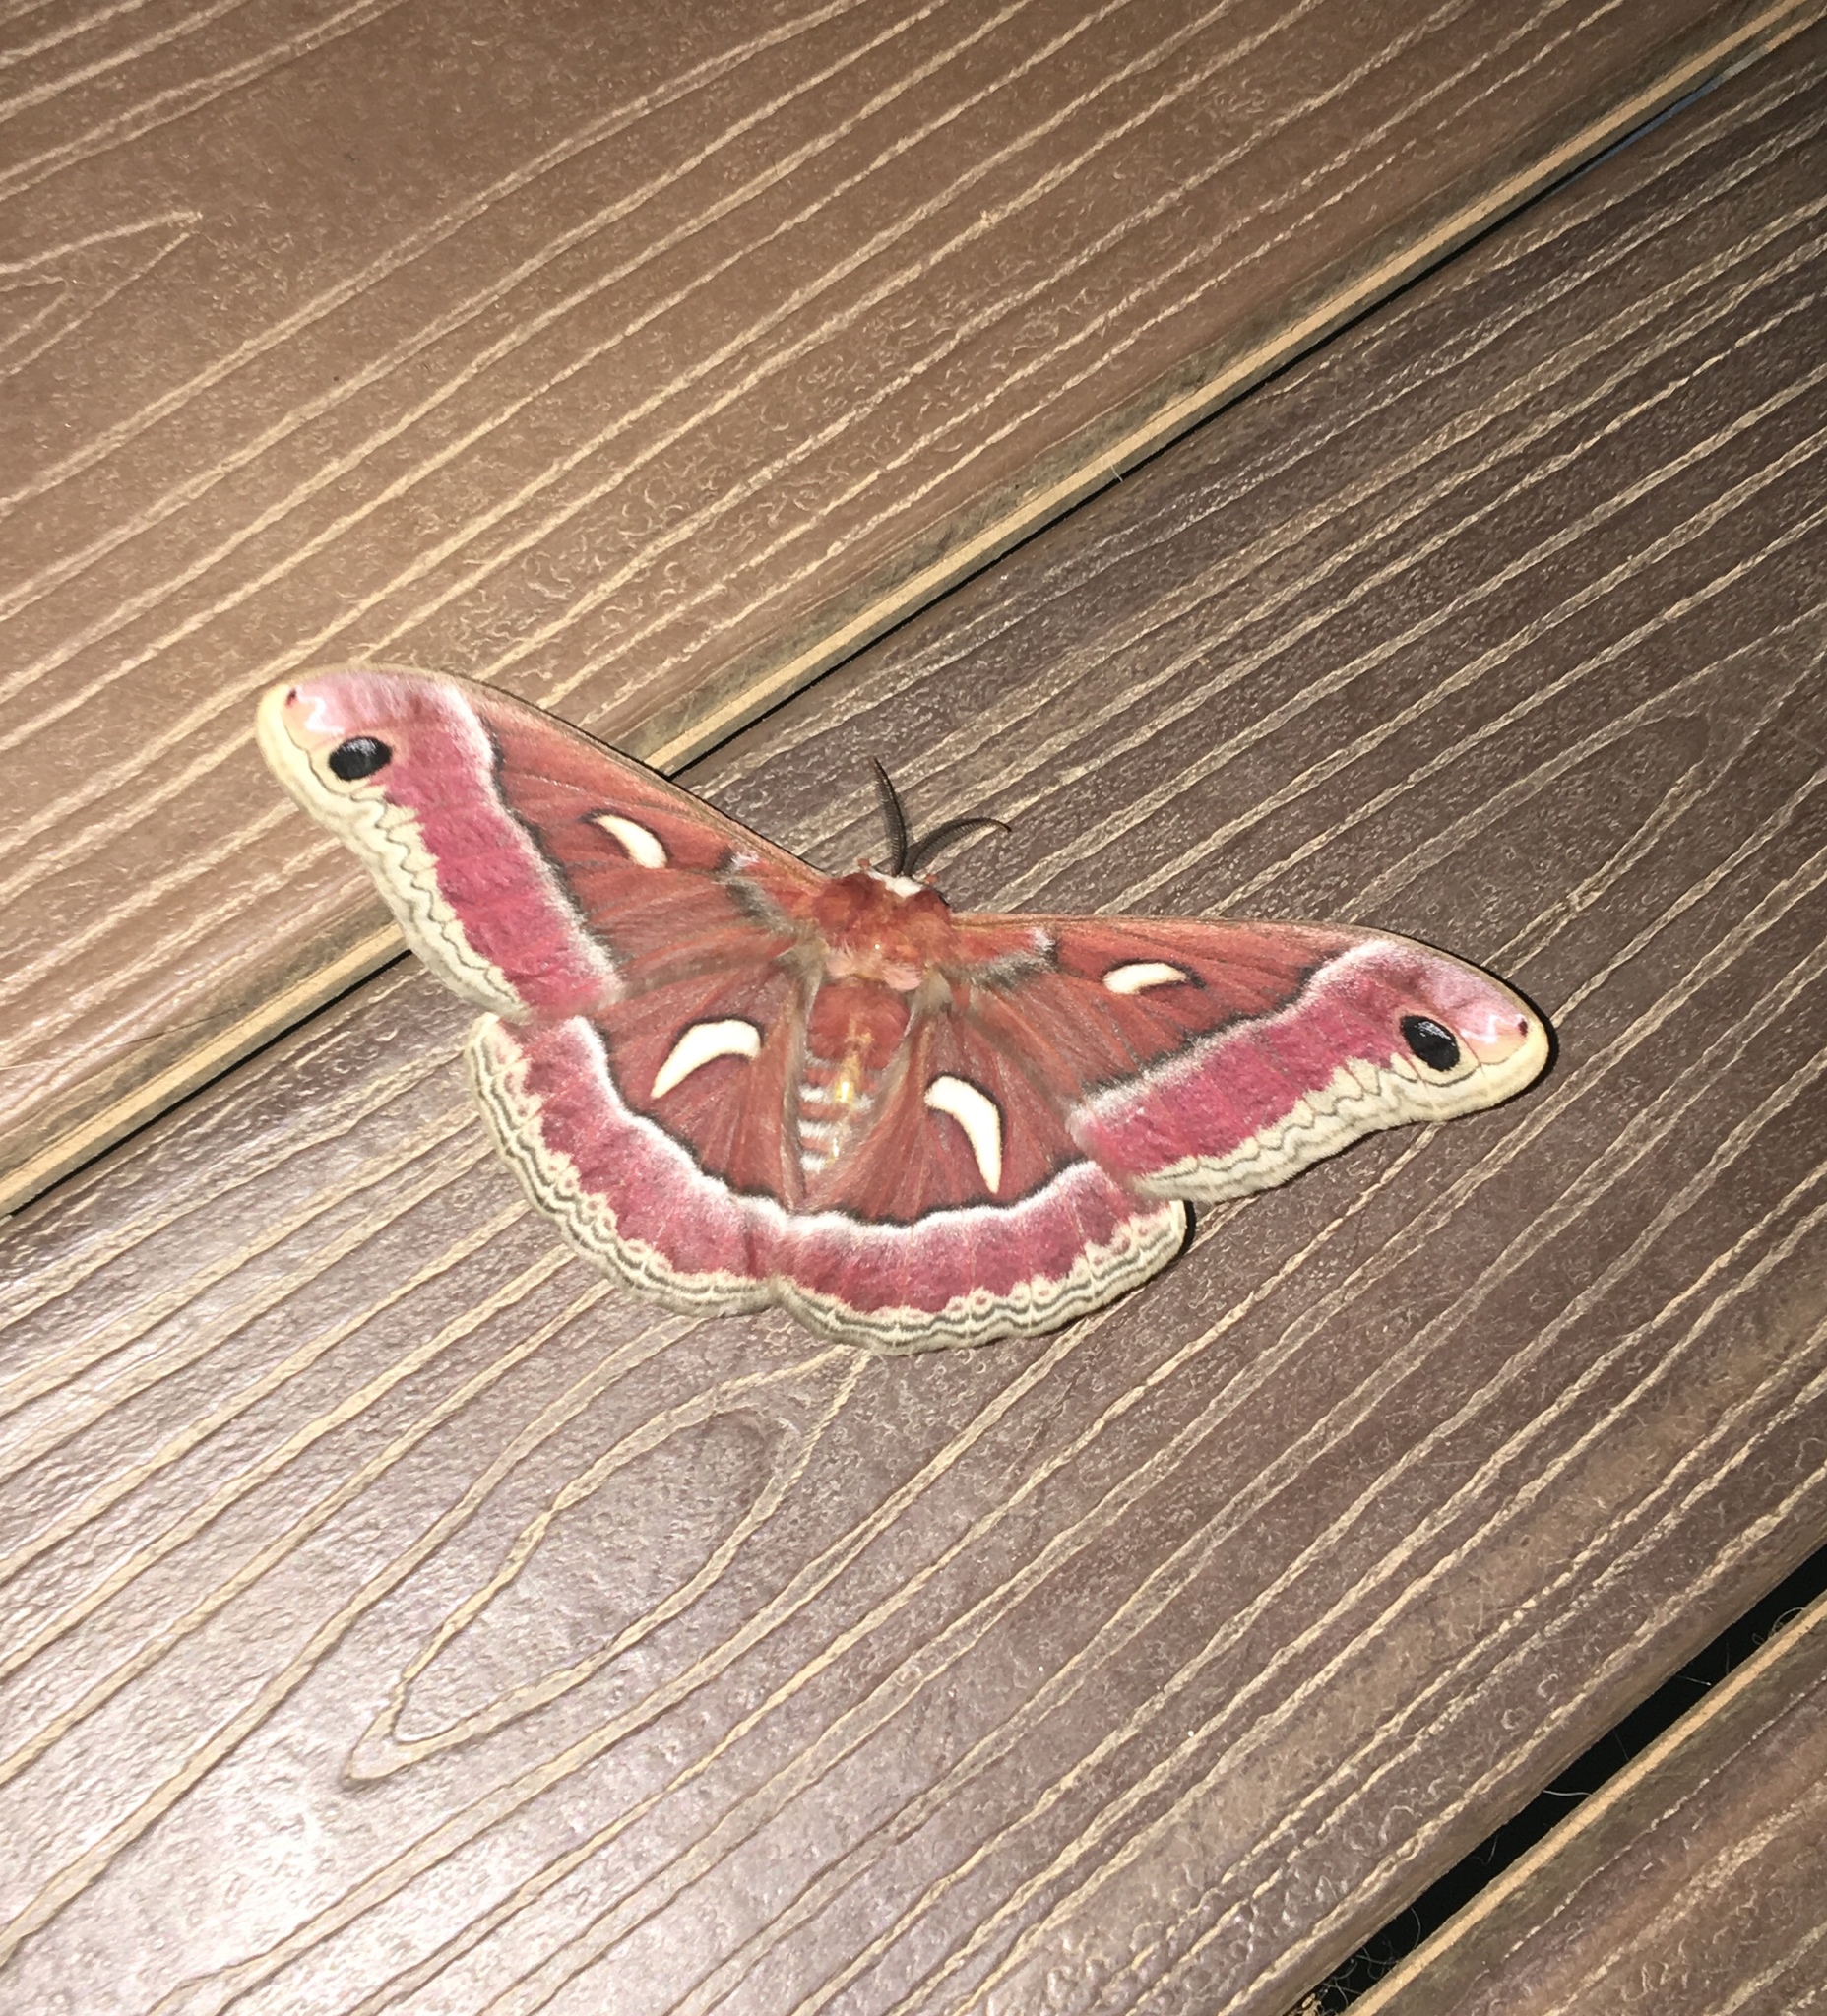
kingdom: Animalia
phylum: Arthropoda
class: Insecta
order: Lepidoptera
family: Saturniidae
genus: Hyalophora
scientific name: Hyalophora euryalus
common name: Ceanothus silkmoth
